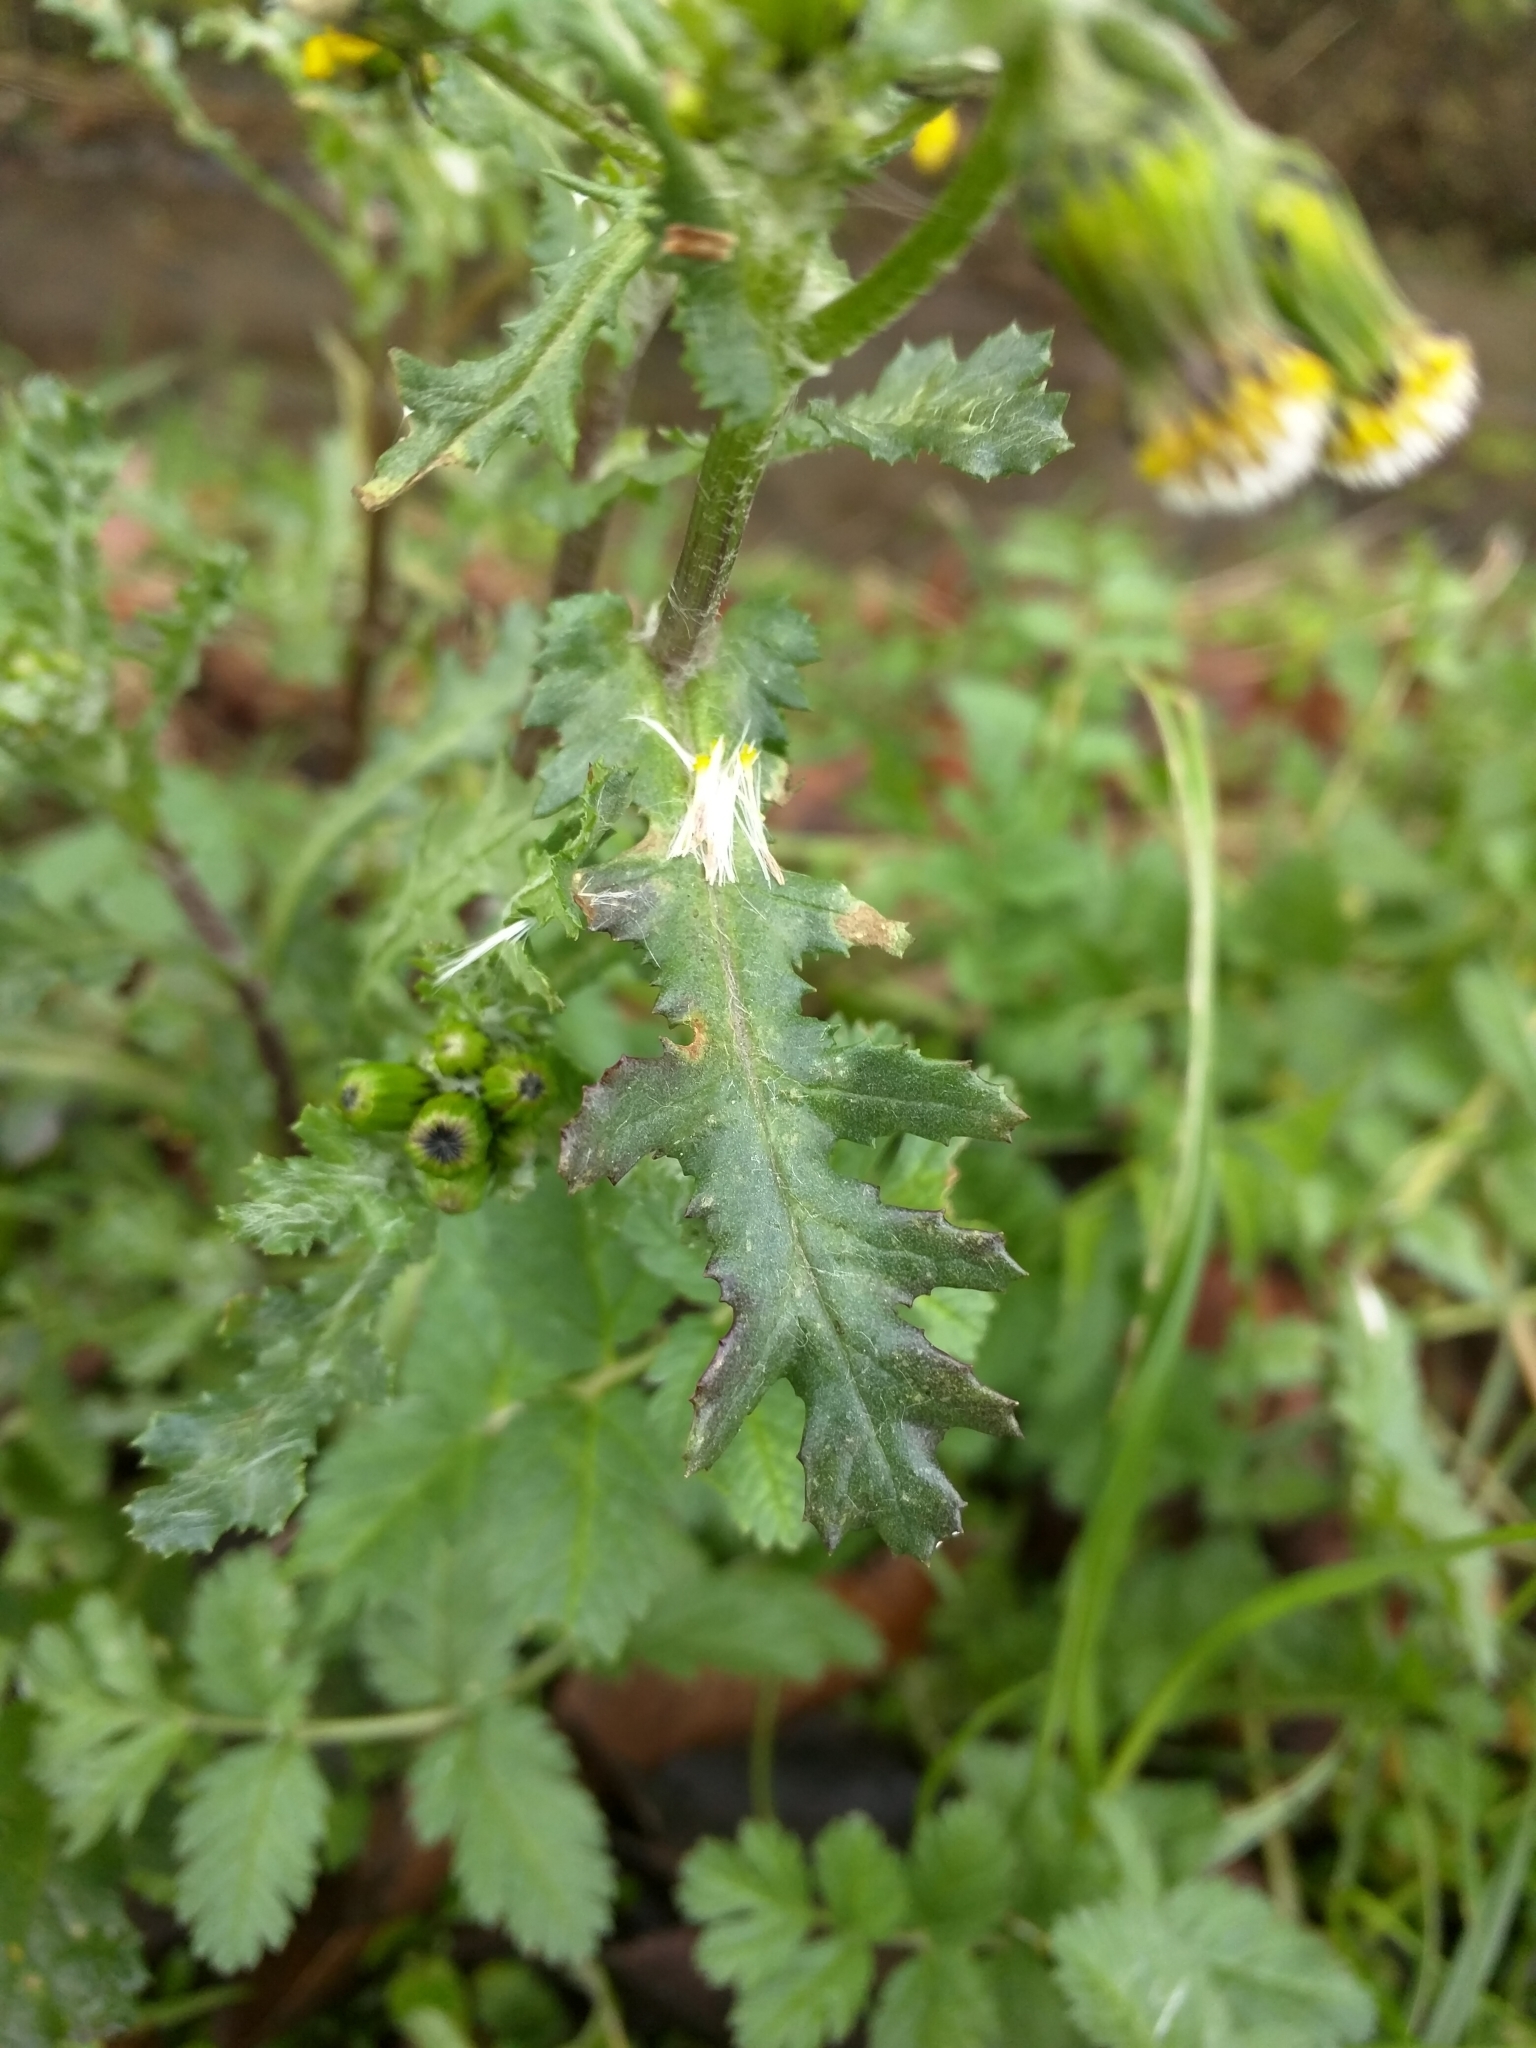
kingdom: Plantae
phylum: Tracheophyta
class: Magnoliopsida
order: Asterales
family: Asteraceae
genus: Senecio
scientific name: Senecio vulgaris
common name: Old-man-in-the-spring
